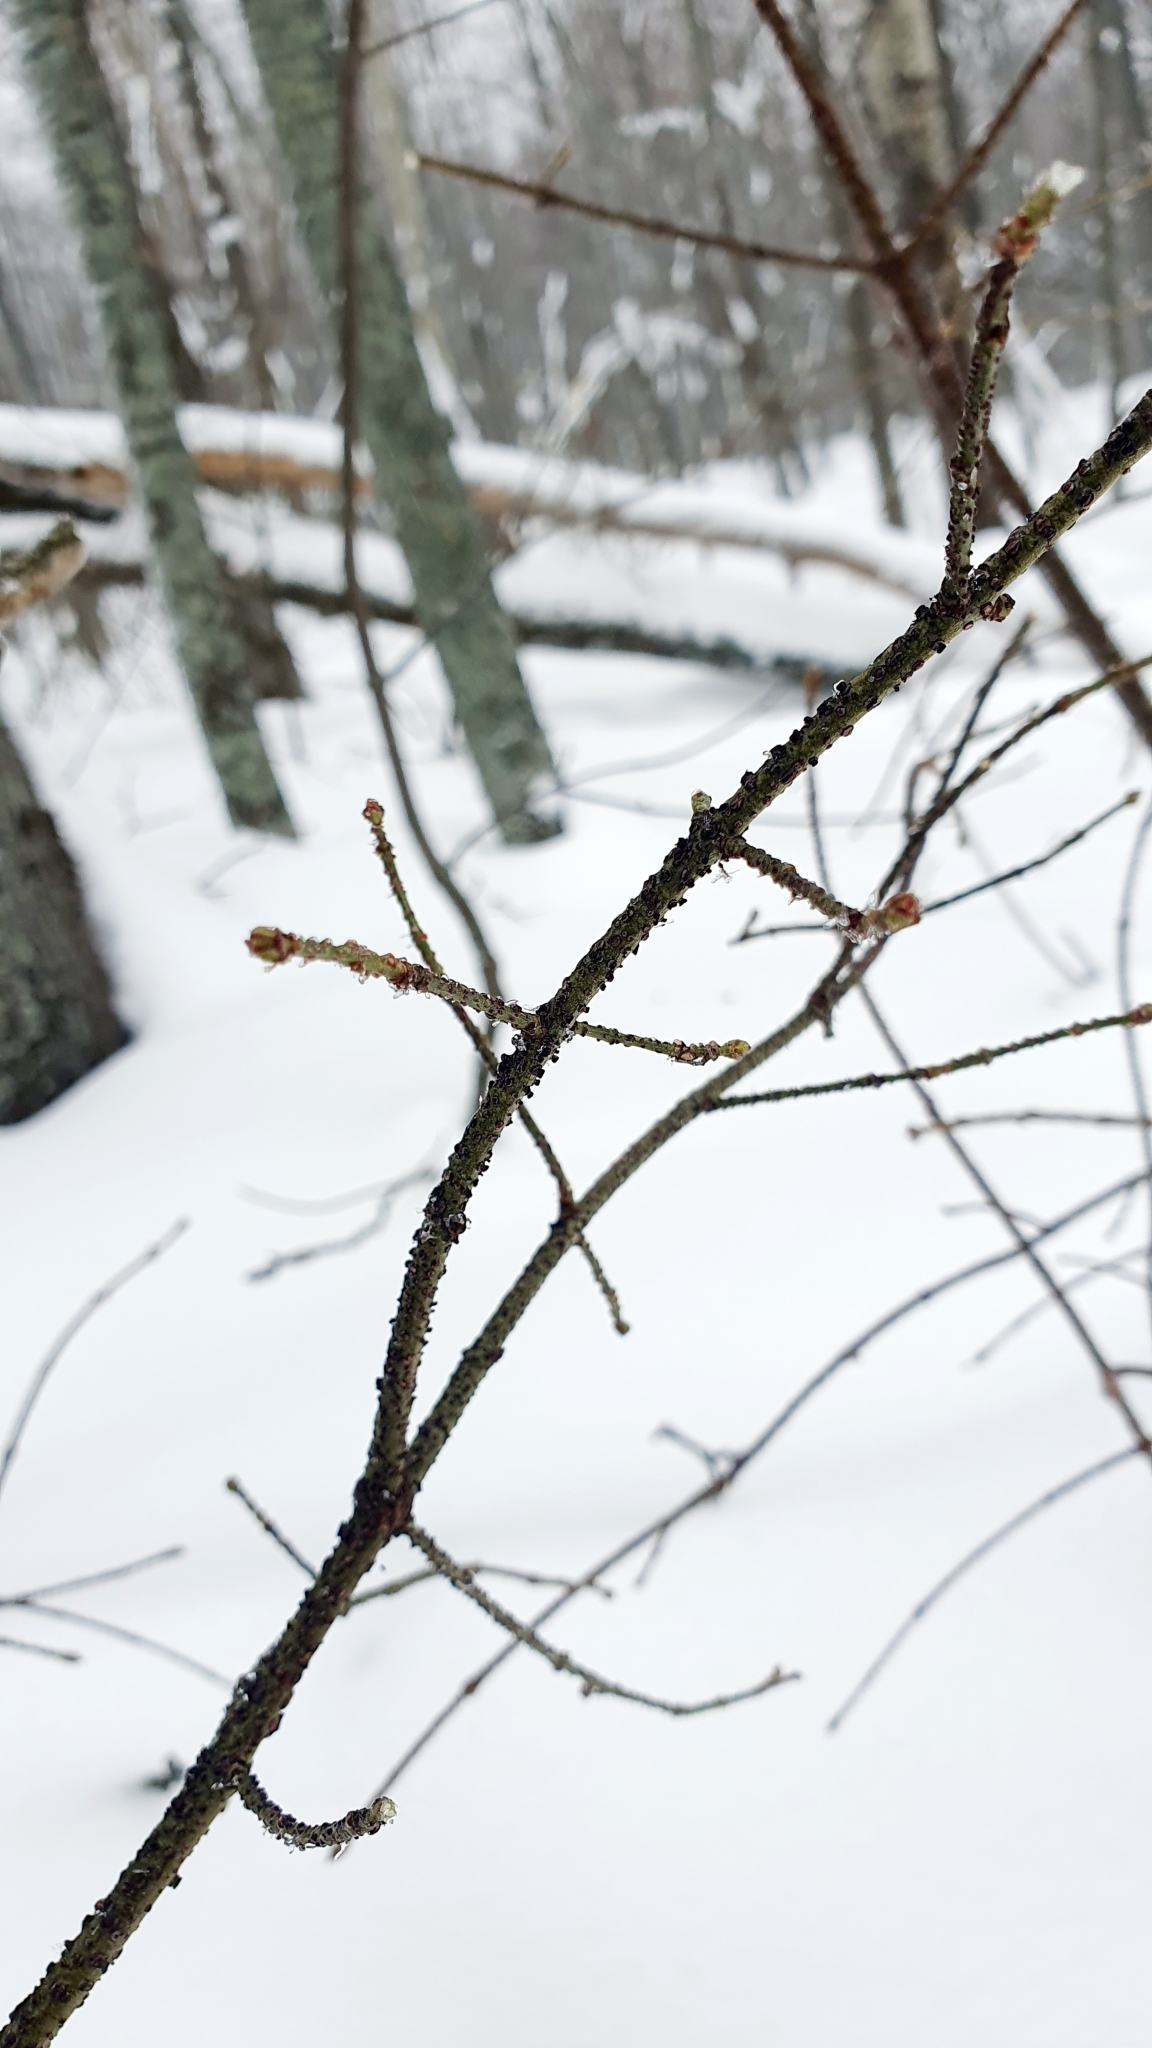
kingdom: Plantae
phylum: Tracheophyta
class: Magnoliopsida
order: Celastrales
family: Celastraceae
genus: Euonymus
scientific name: Euonymus verrucosus
